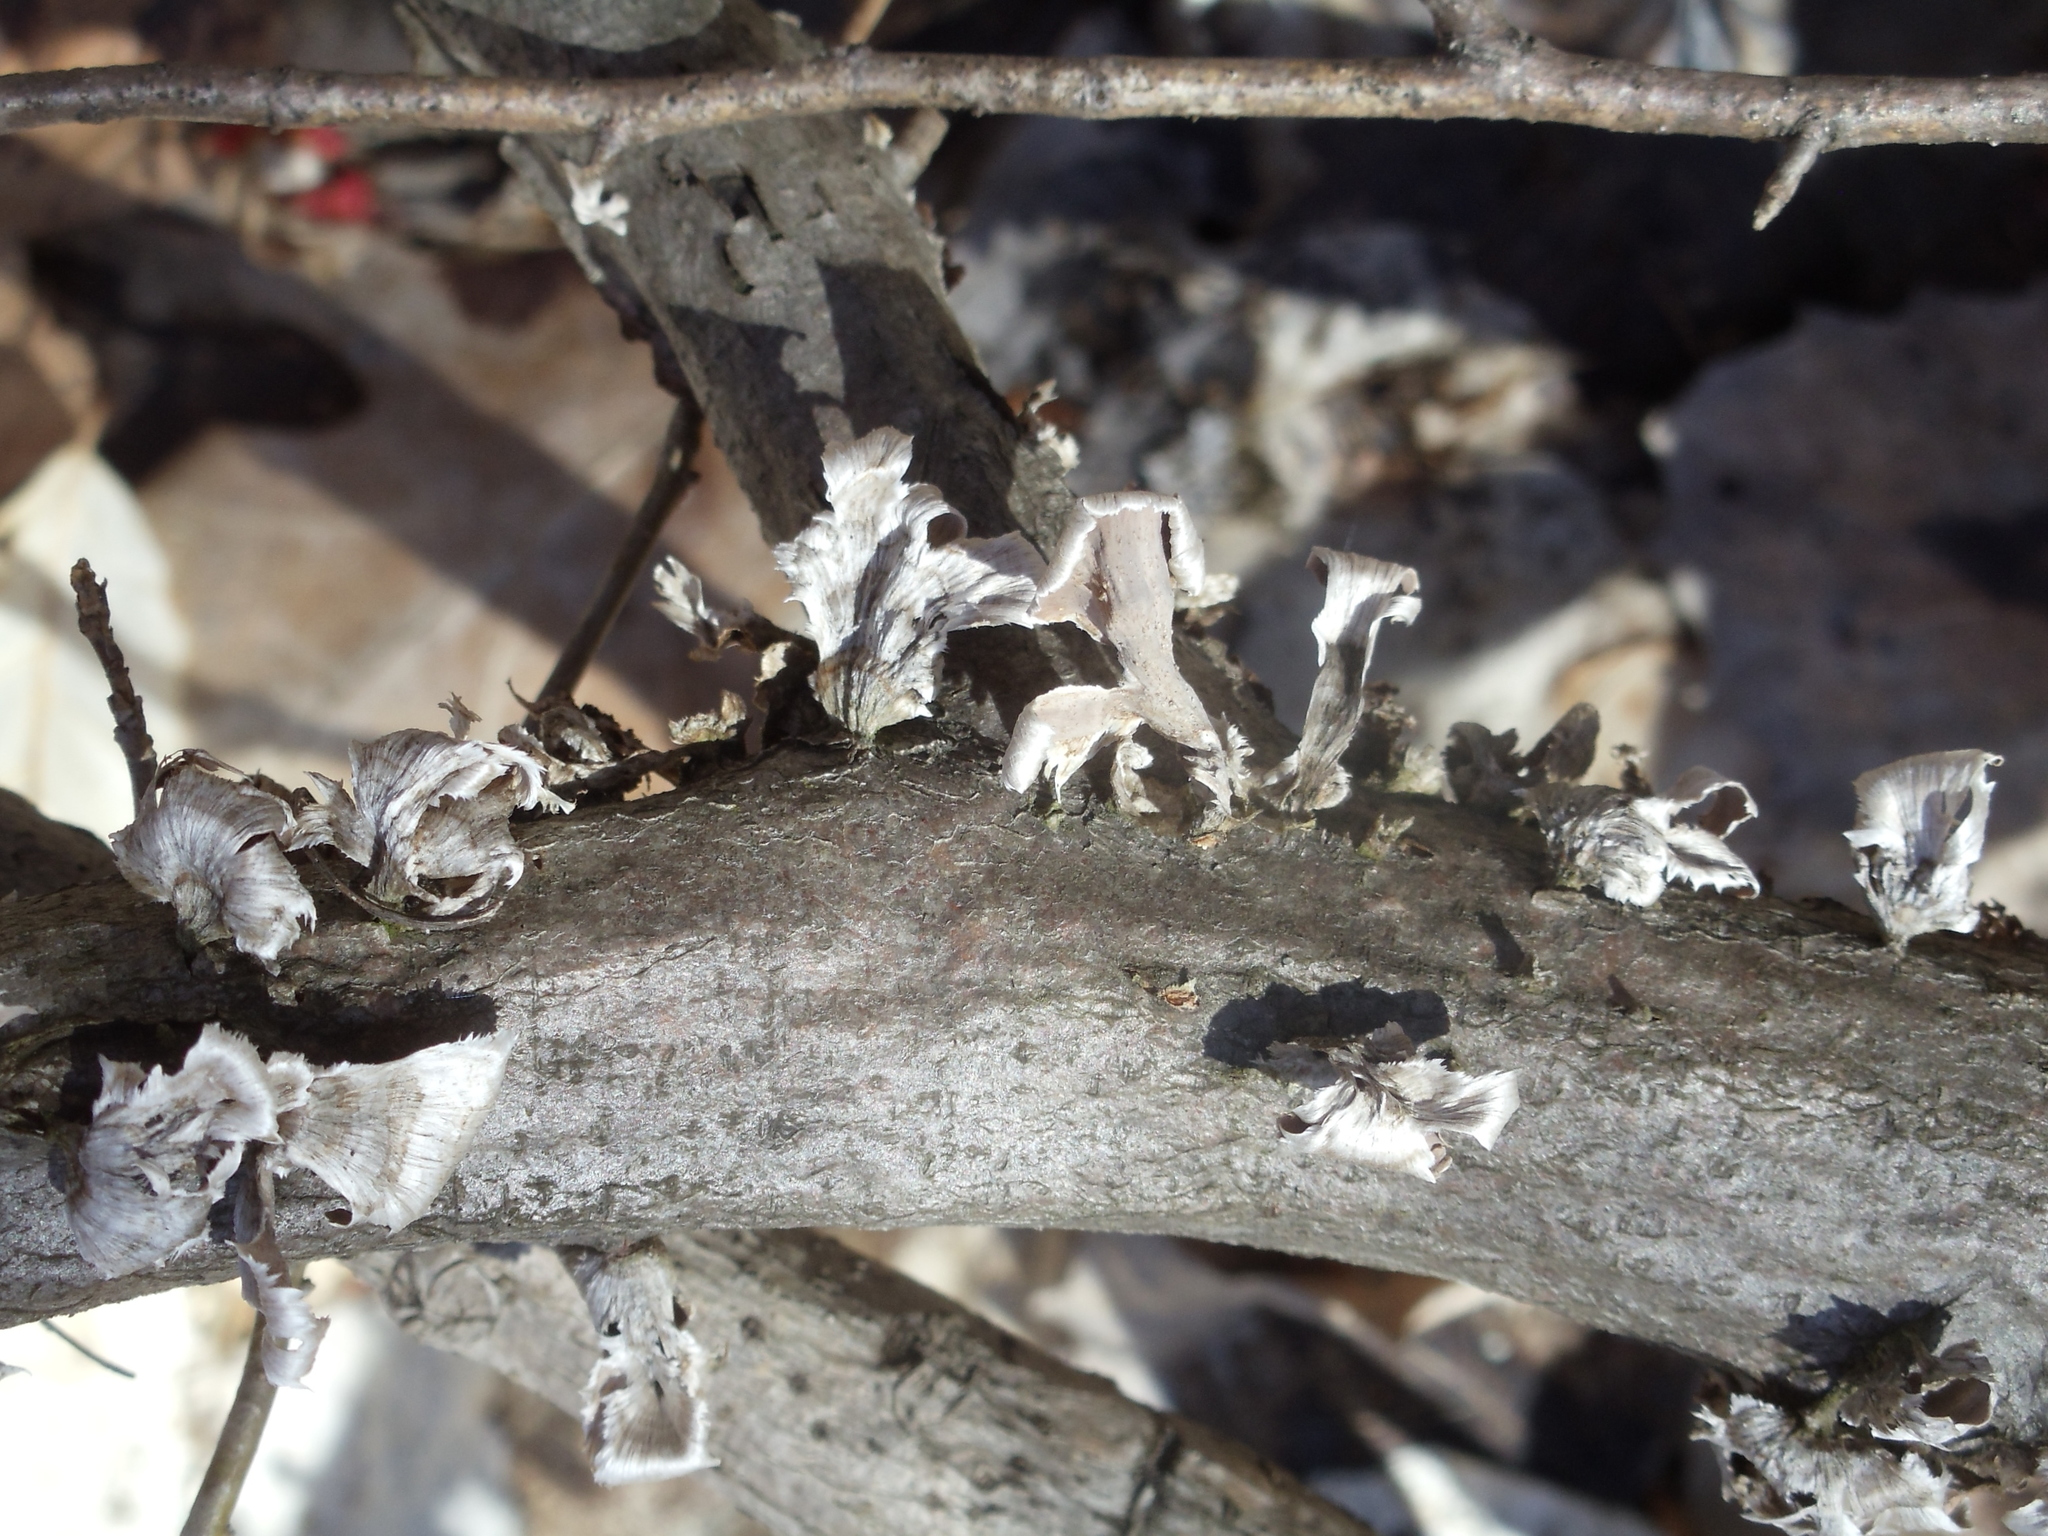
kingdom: Fungi
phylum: Basidiomycota
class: Agaricomycetes
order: Russulales
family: Stereaceae
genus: Stereum
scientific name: Stereum striatum
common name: Silky parchment
